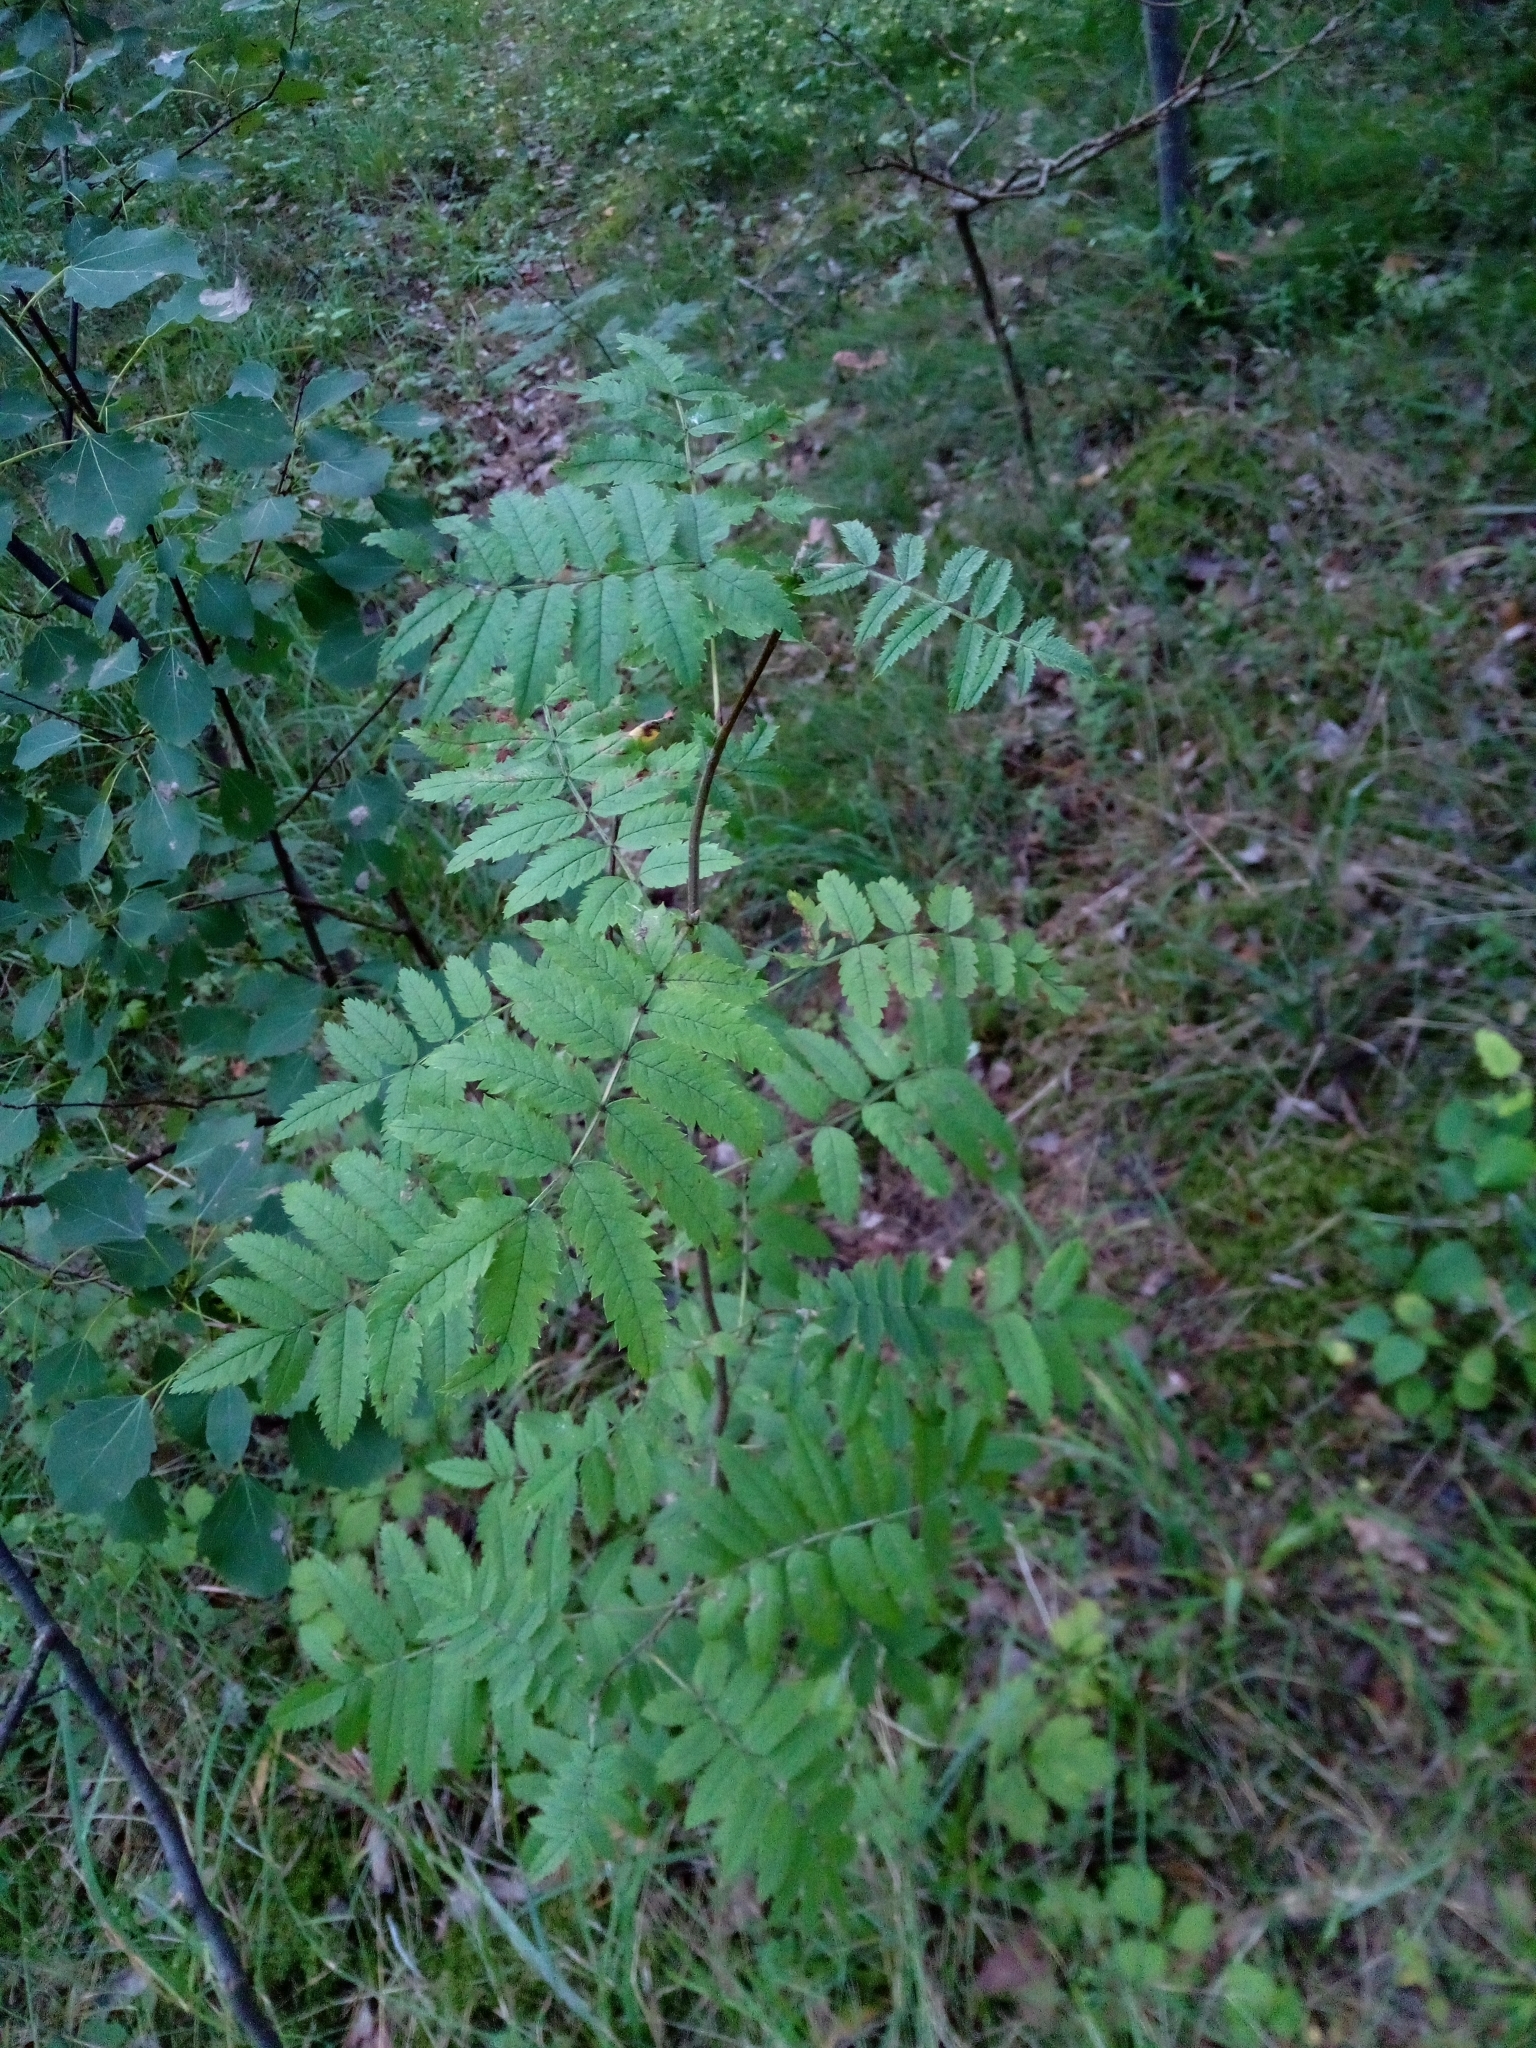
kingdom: Plantae
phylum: Tracheophyta
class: Magnoliopsida
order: Rosales
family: Rosaceae
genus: Sorbus
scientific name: Sorbus aucuparia
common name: Rowan
